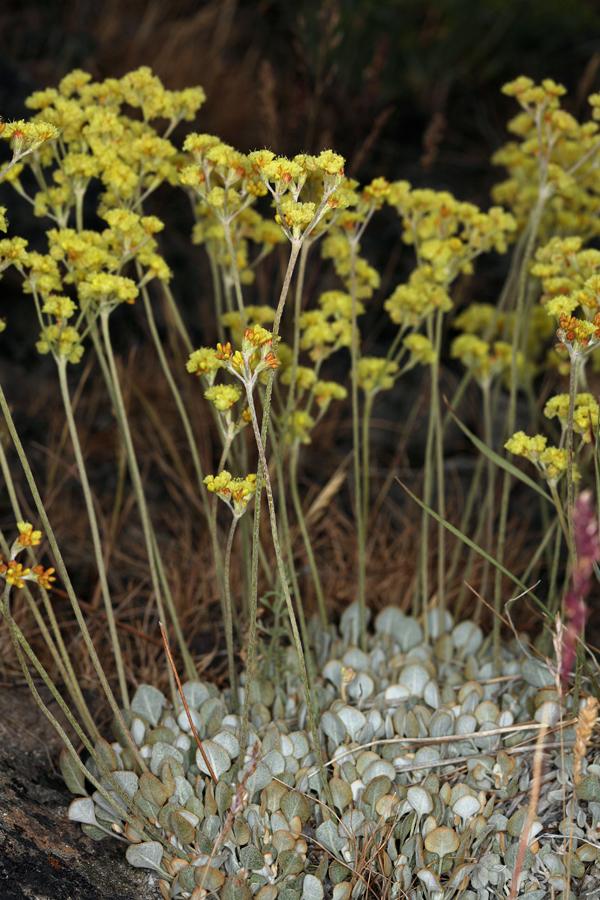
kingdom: Plantae
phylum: Tracheophyta
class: Magnoliopsida
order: Caryophyllales
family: Polygonaceae
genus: Eriogonum
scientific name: Eriogonum strictum
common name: Blue mountain buckwheat
